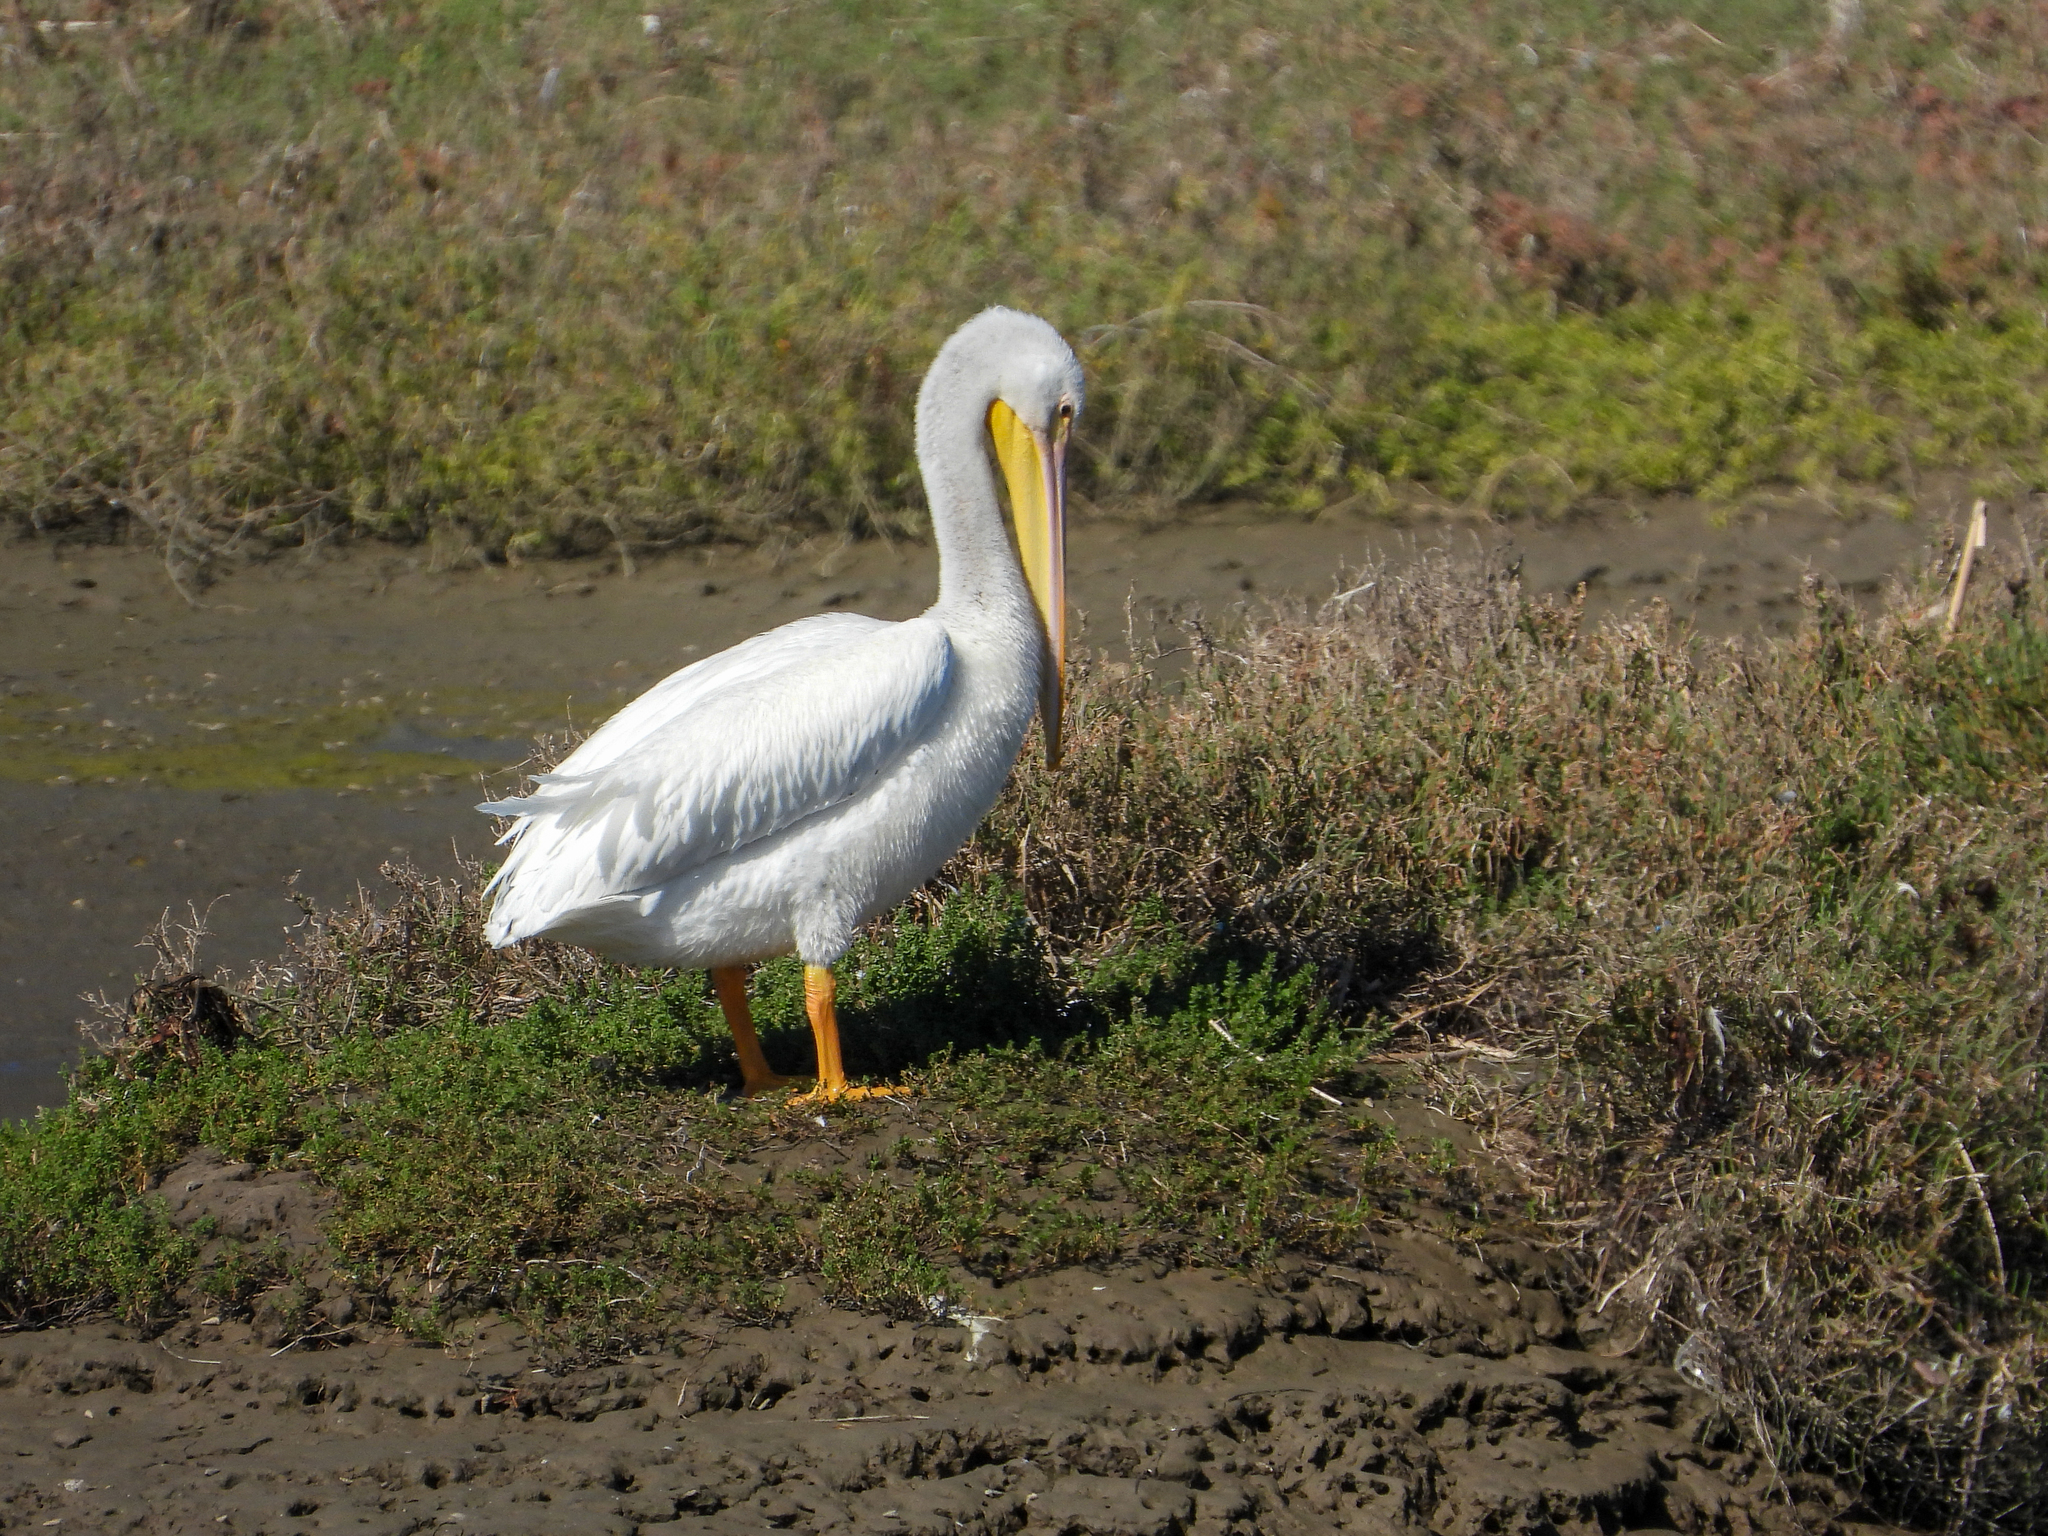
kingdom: Animalia
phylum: Chordata
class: Aves
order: Pelecaniformes
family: Pelecanidae
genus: Pelecanus
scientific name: Pelecanus erythrorhynchos
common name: American white pelican
